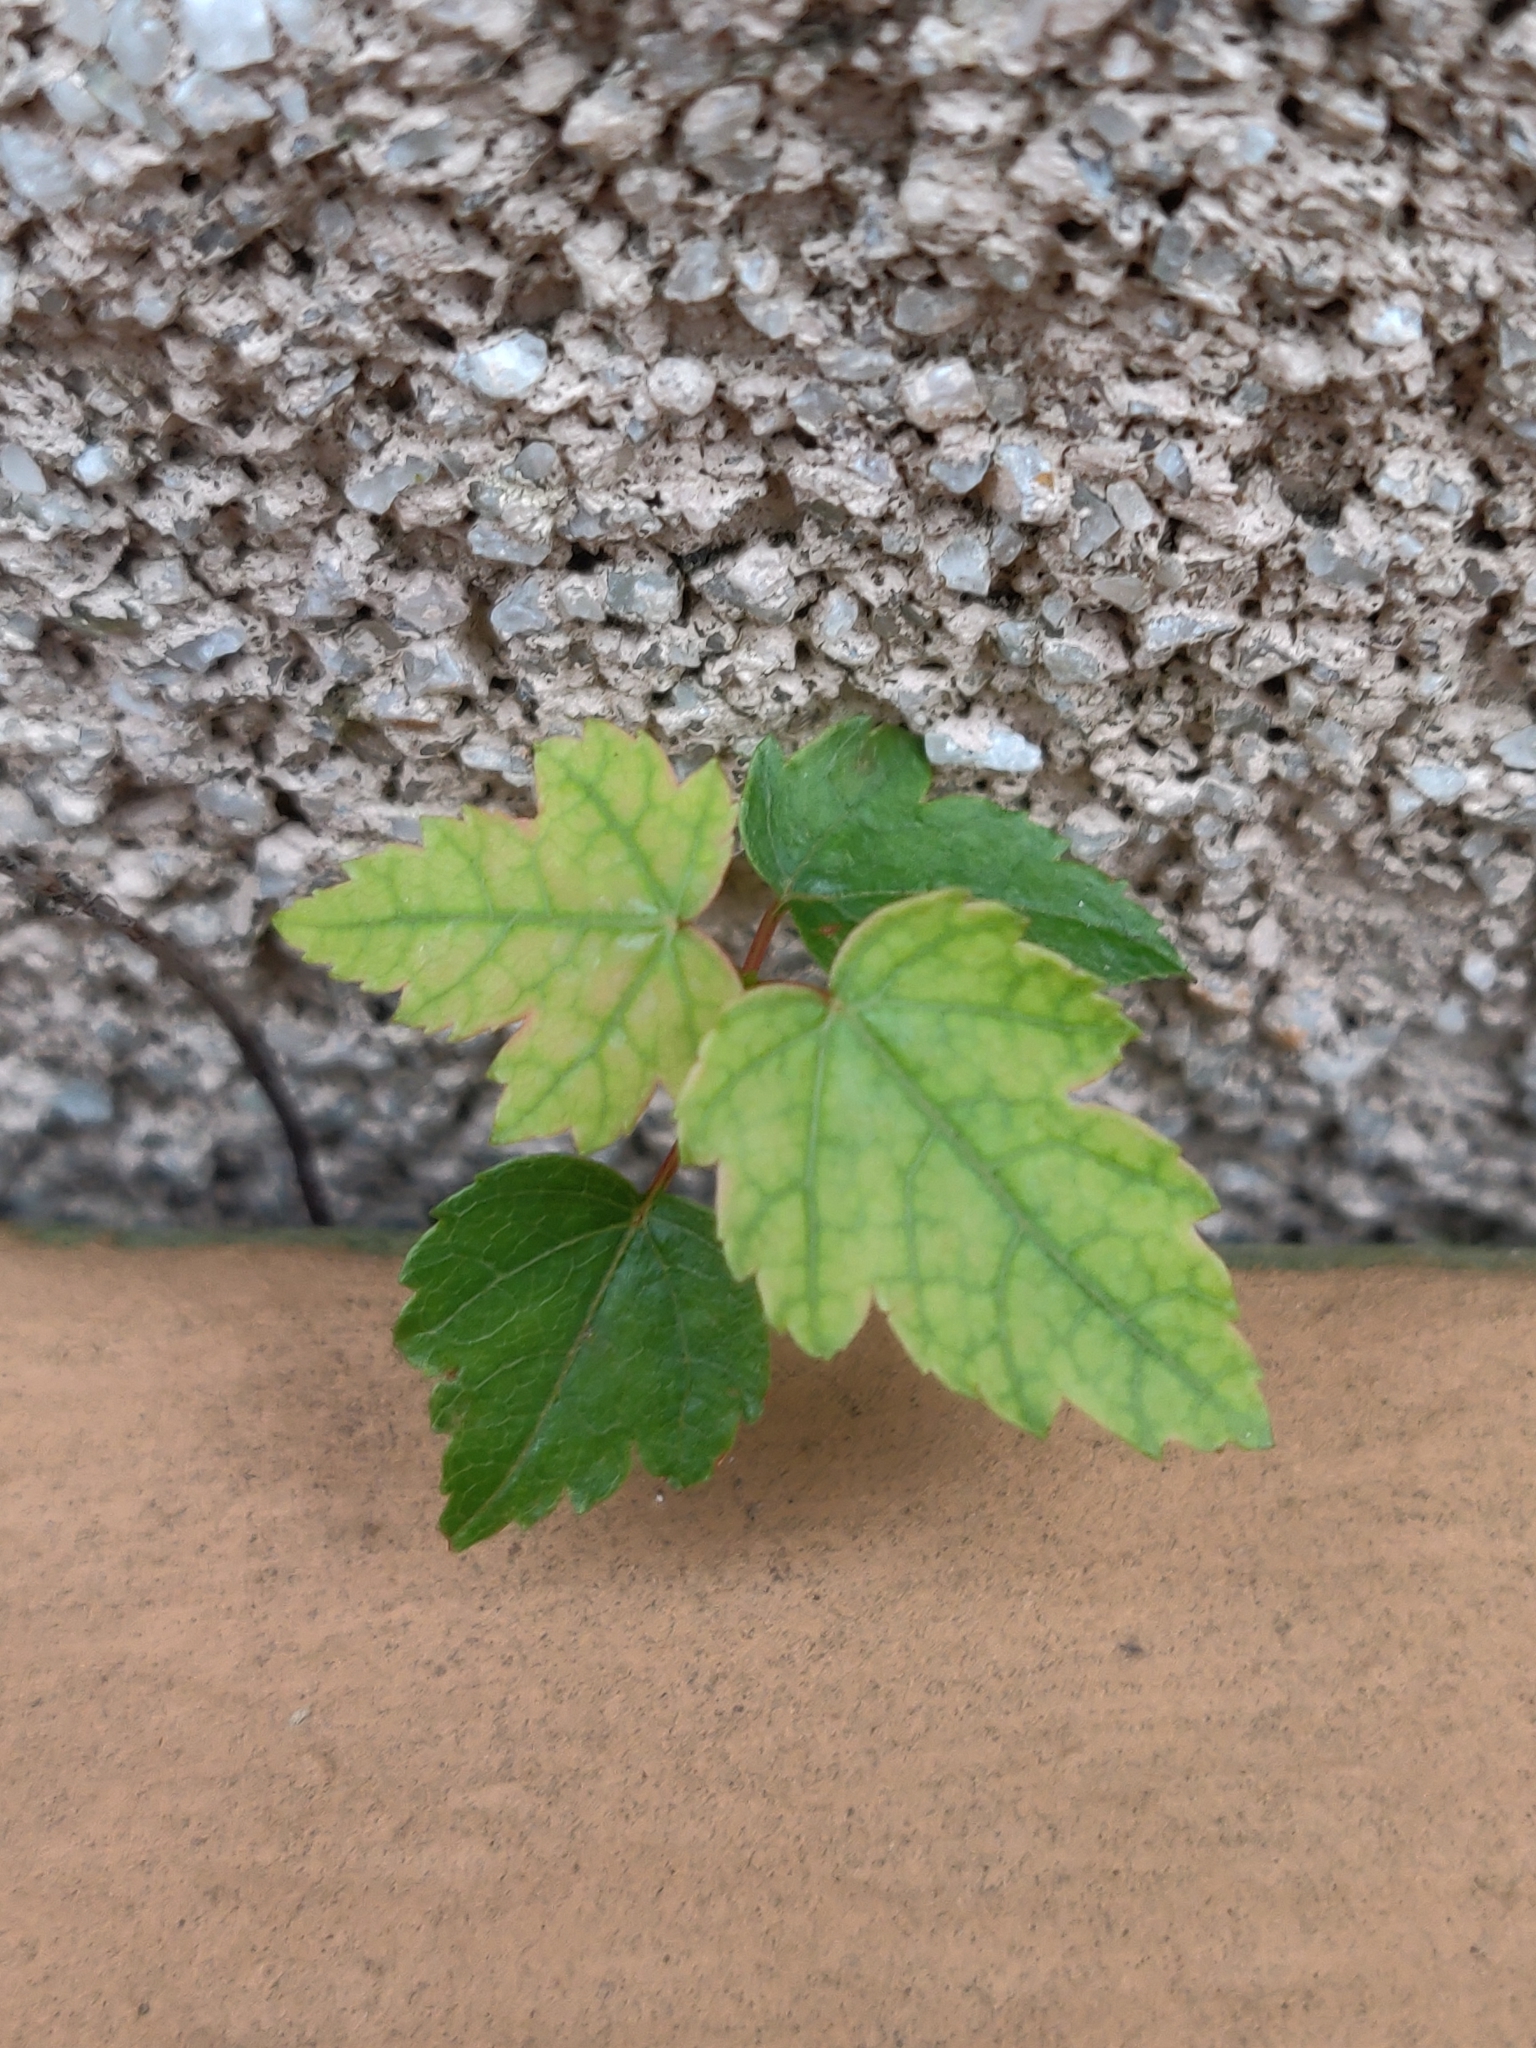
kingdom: Plantae
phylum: Tracheophyta
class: Magnoliopsida
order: Sapindales
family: Sapindaceae
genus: Acer
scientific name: Acer
